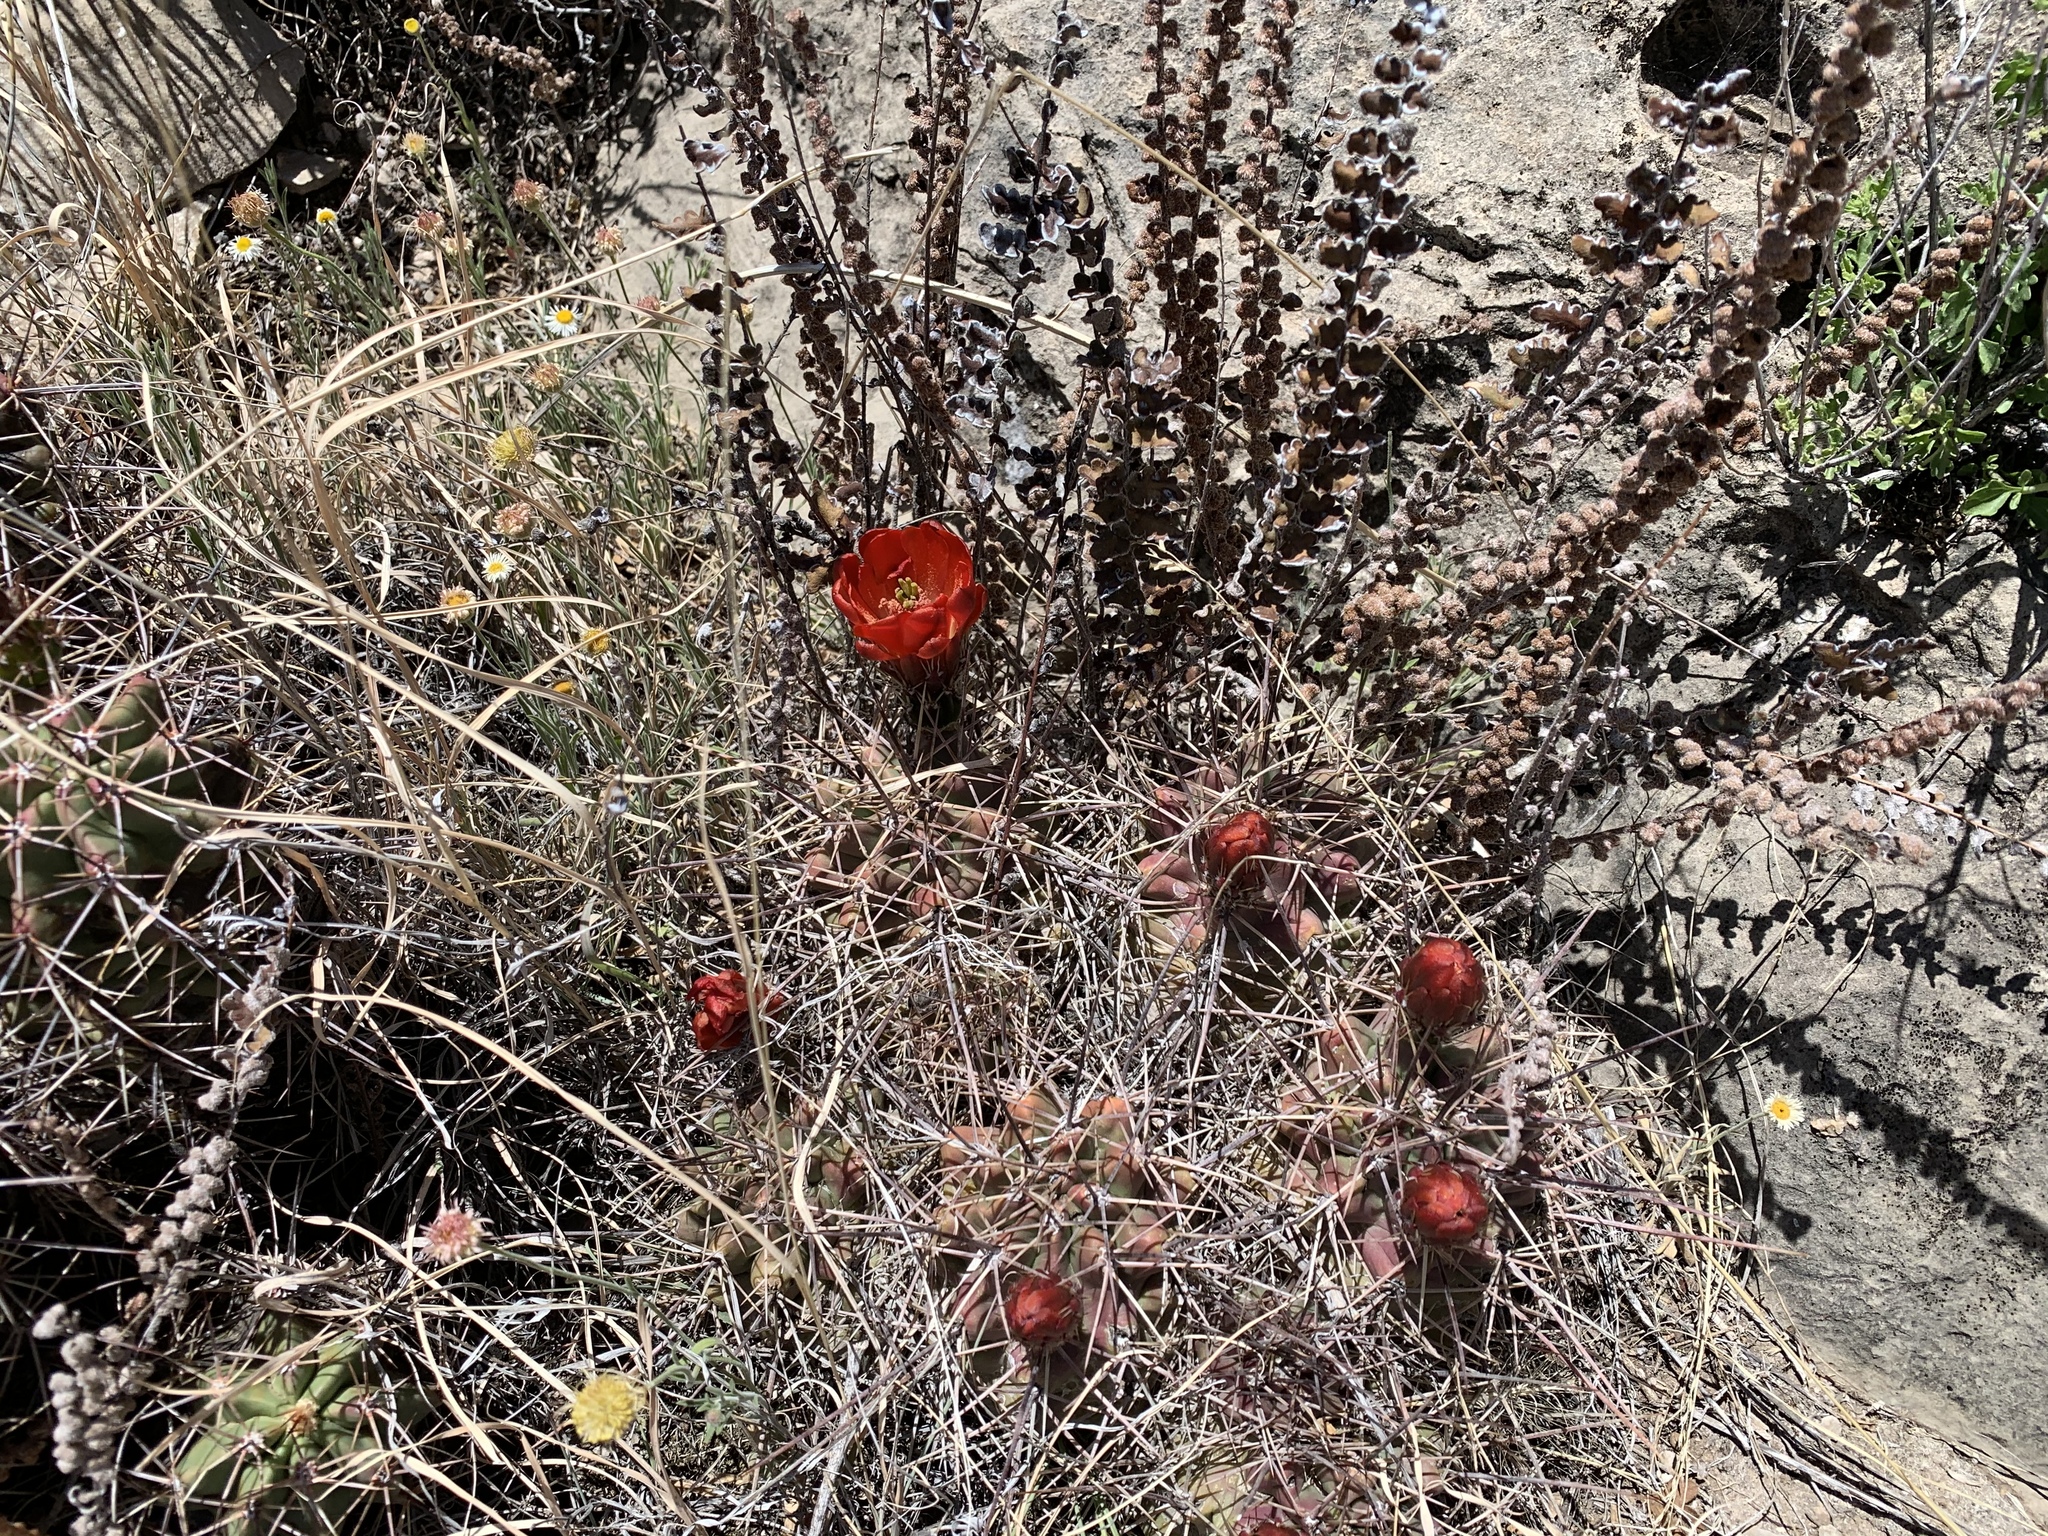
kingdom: Plantae
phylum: Tracheophyta
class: Magnoliopsida
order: Caryophyllales
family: Cactaceae
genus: Echinocereus
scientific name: Echinocereus coccineus
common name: Scarlet hedgehog cactus
